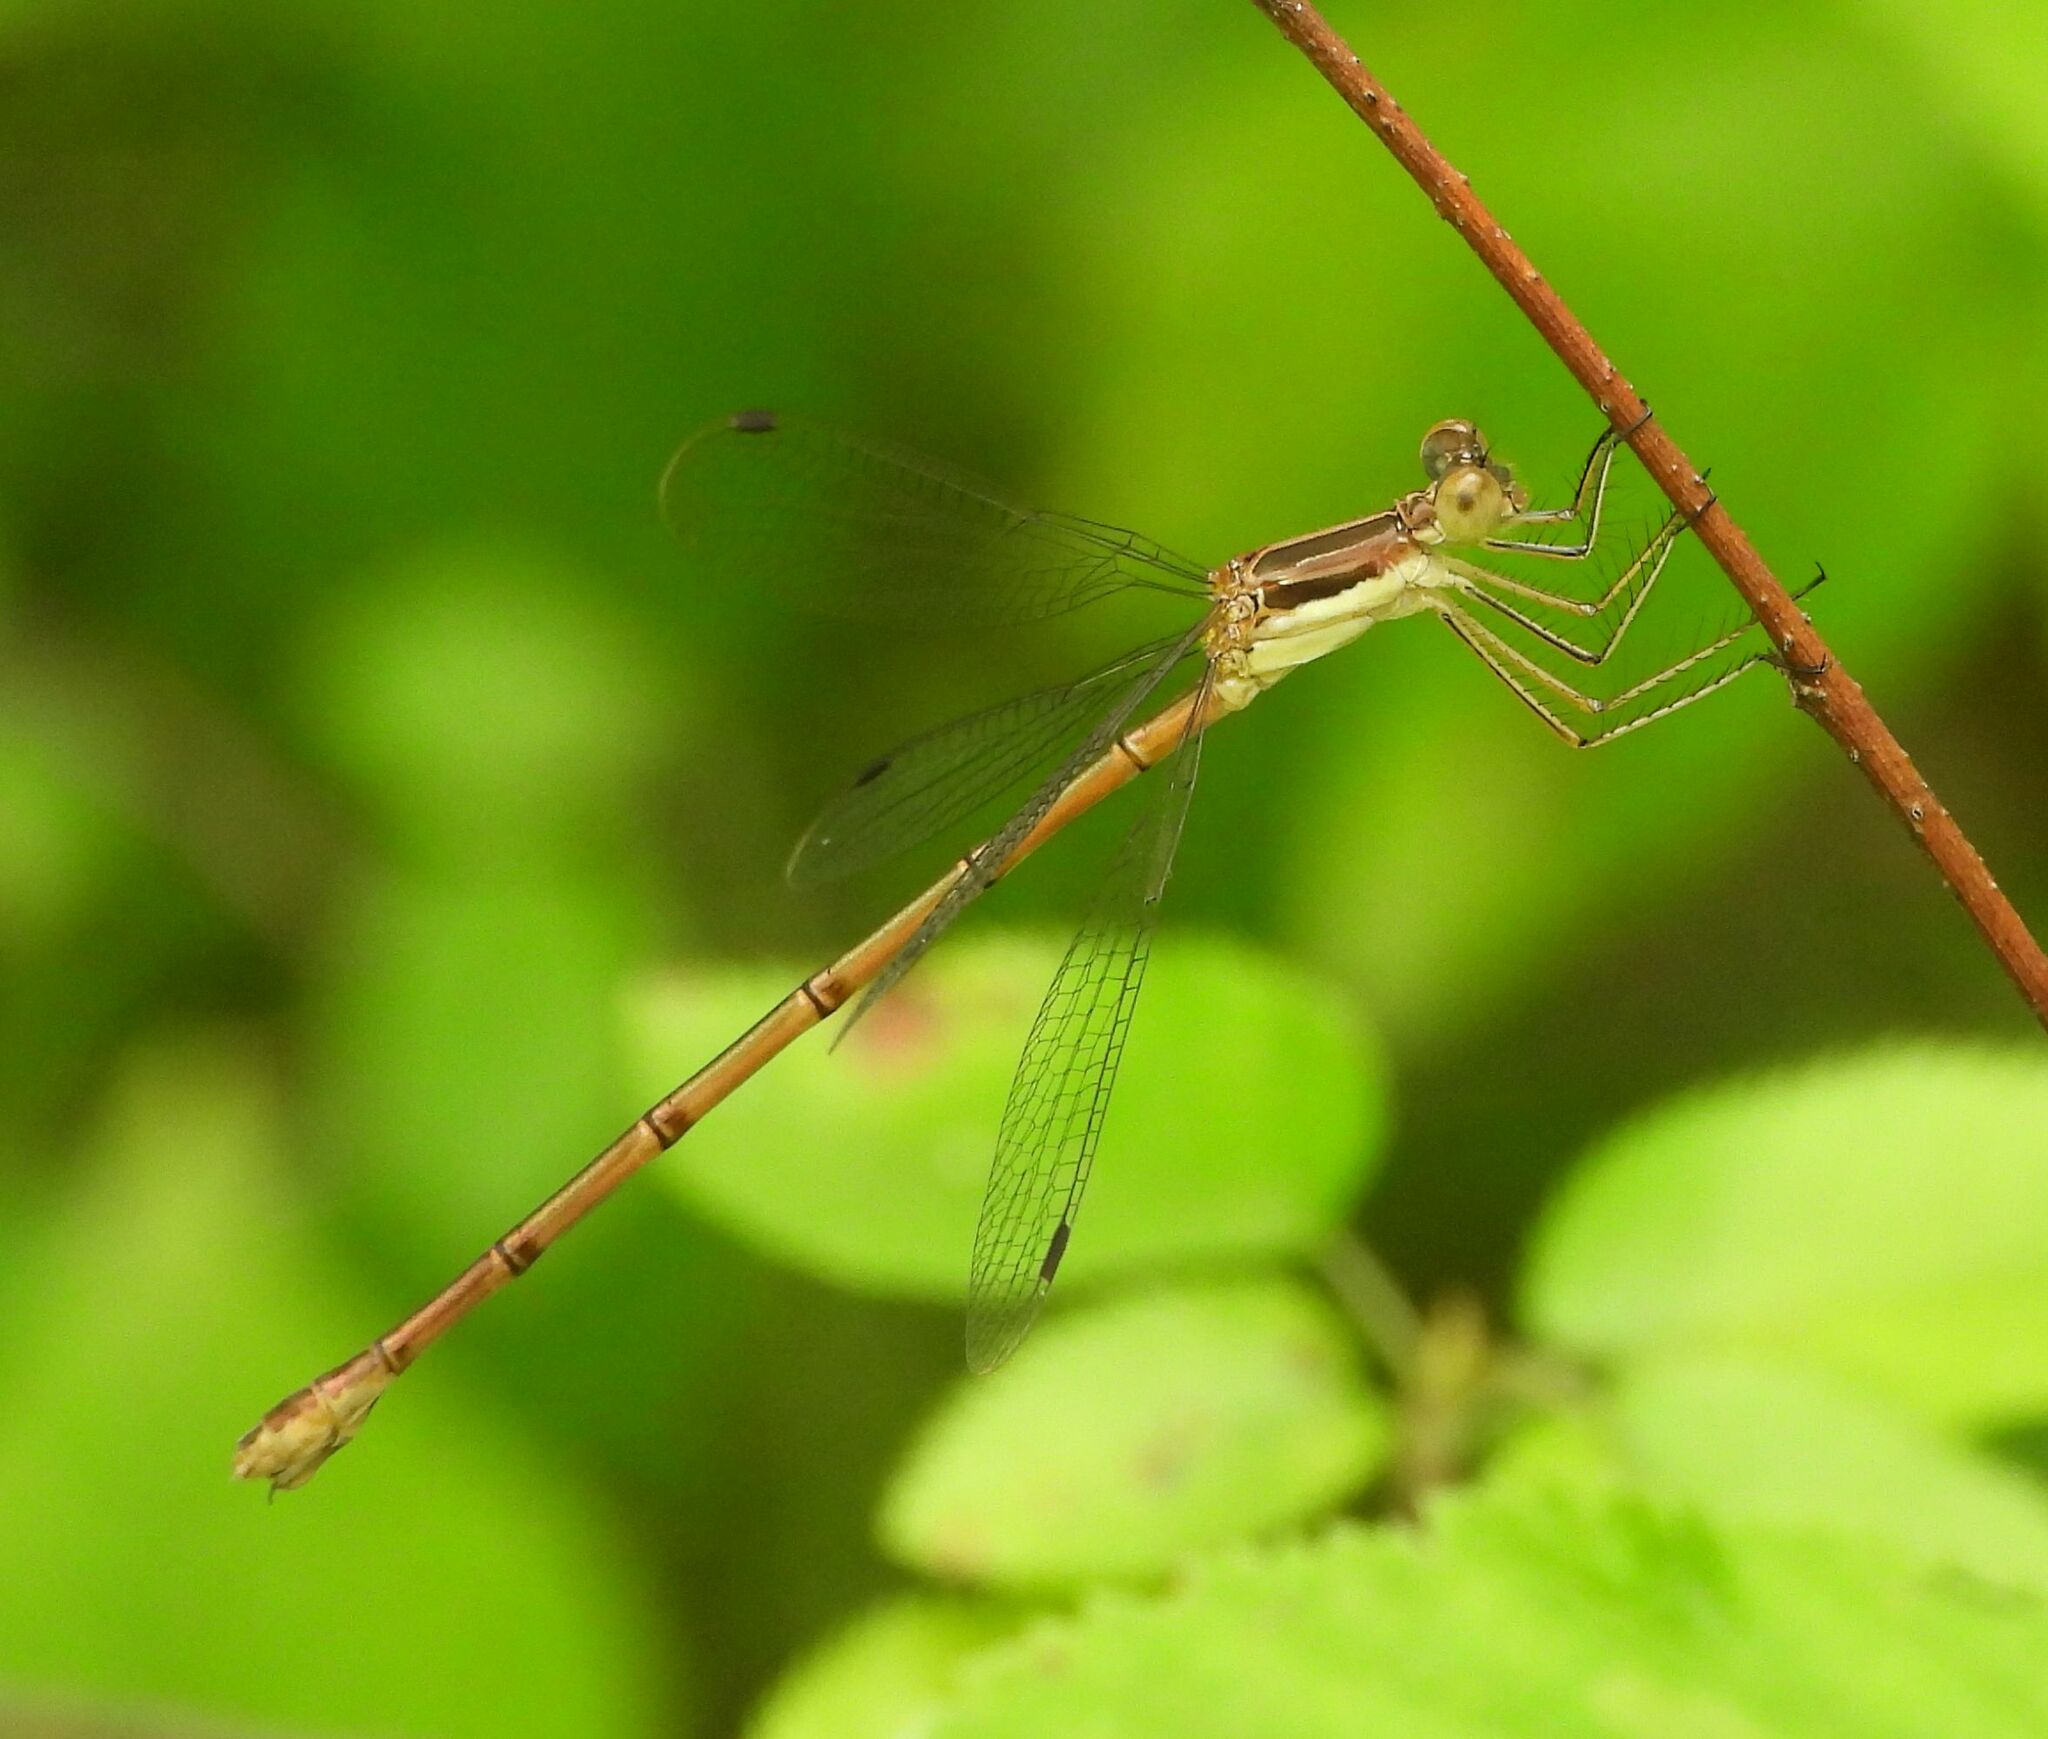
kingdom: Animalia
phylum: Arthropoda
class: Insecta
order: Odonata
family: Lestidae
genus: Lestes
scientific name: Lestes rectangularis
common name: Slender spreadwing
